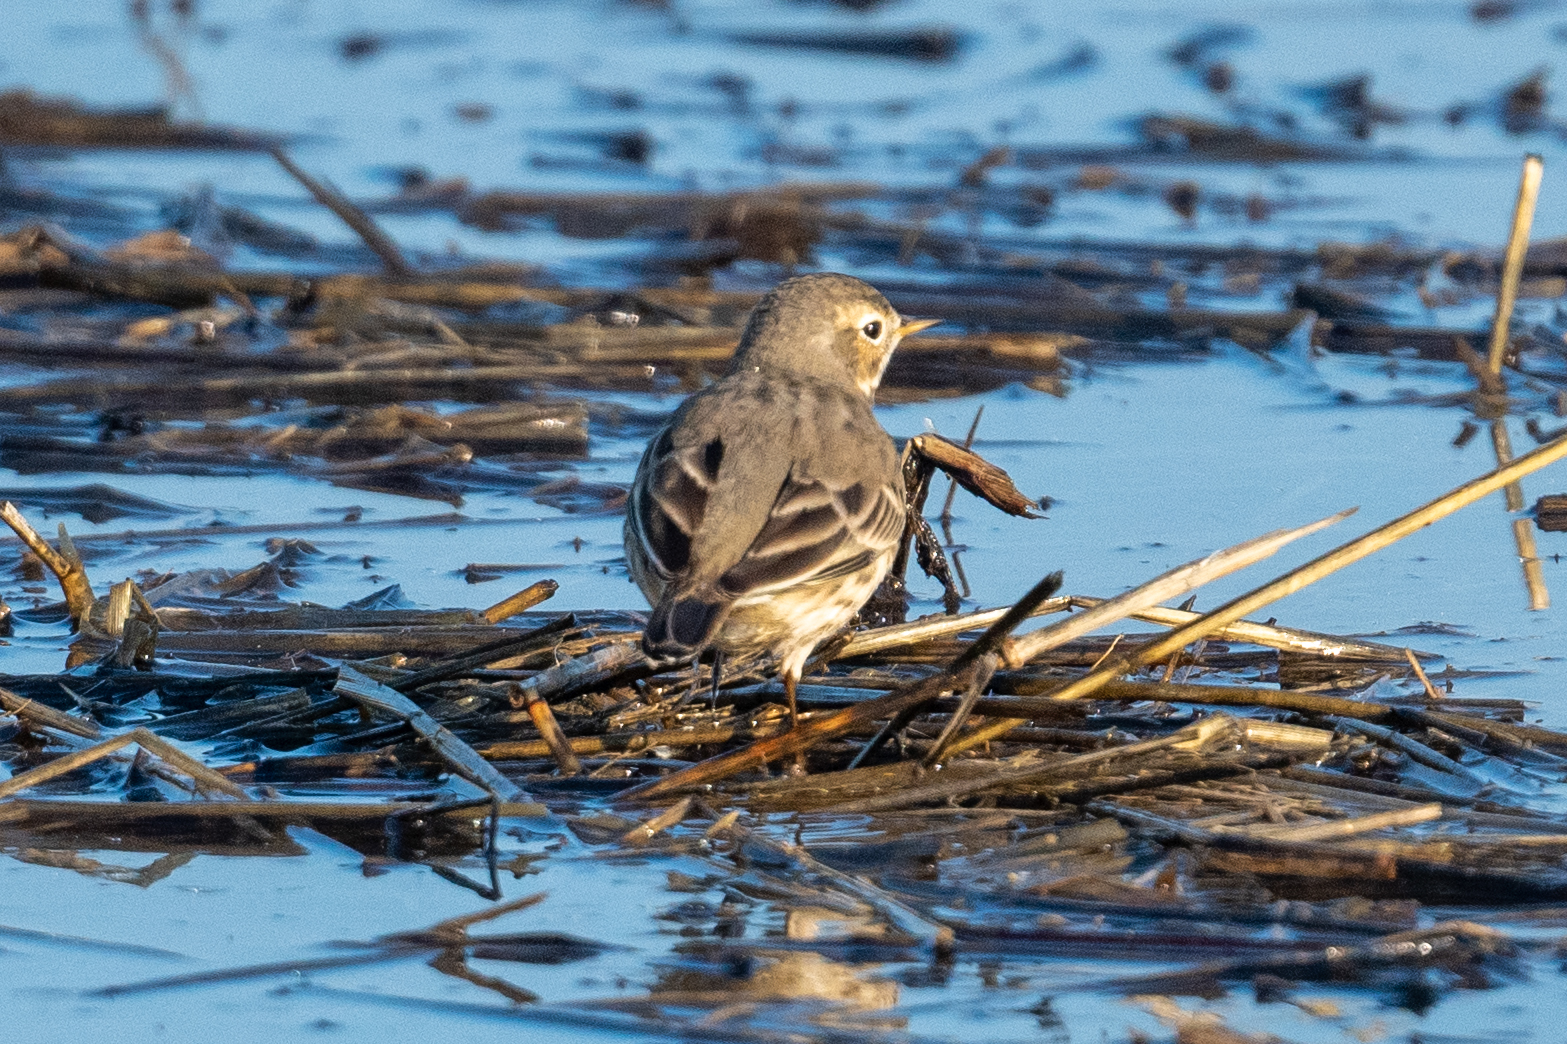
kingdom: Animalia
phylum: Chordata
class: Aves
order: Passeriformes
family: Motacillidae
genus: Anthus
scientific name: Anthus rubescens
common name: Buff-bellied pipit
